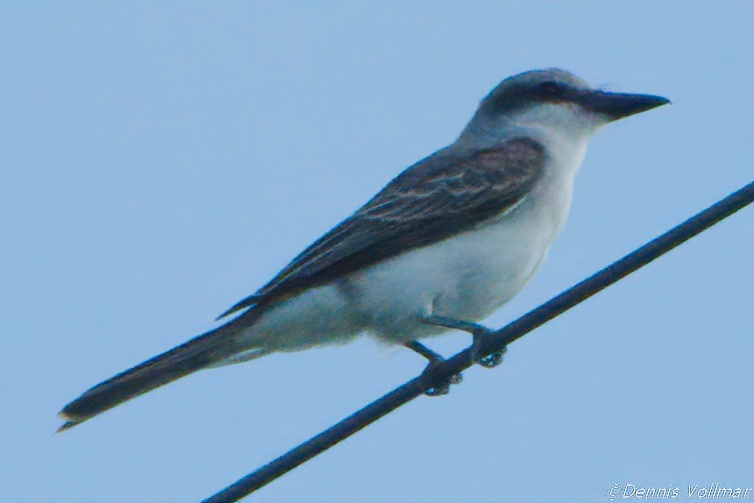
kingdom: Animalia
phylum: Chordata
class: Aves
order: Passeriformes
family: Tyrannidae
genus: Tyrannus
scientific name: Tyrannus dominicensis
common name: Gray kingbird
